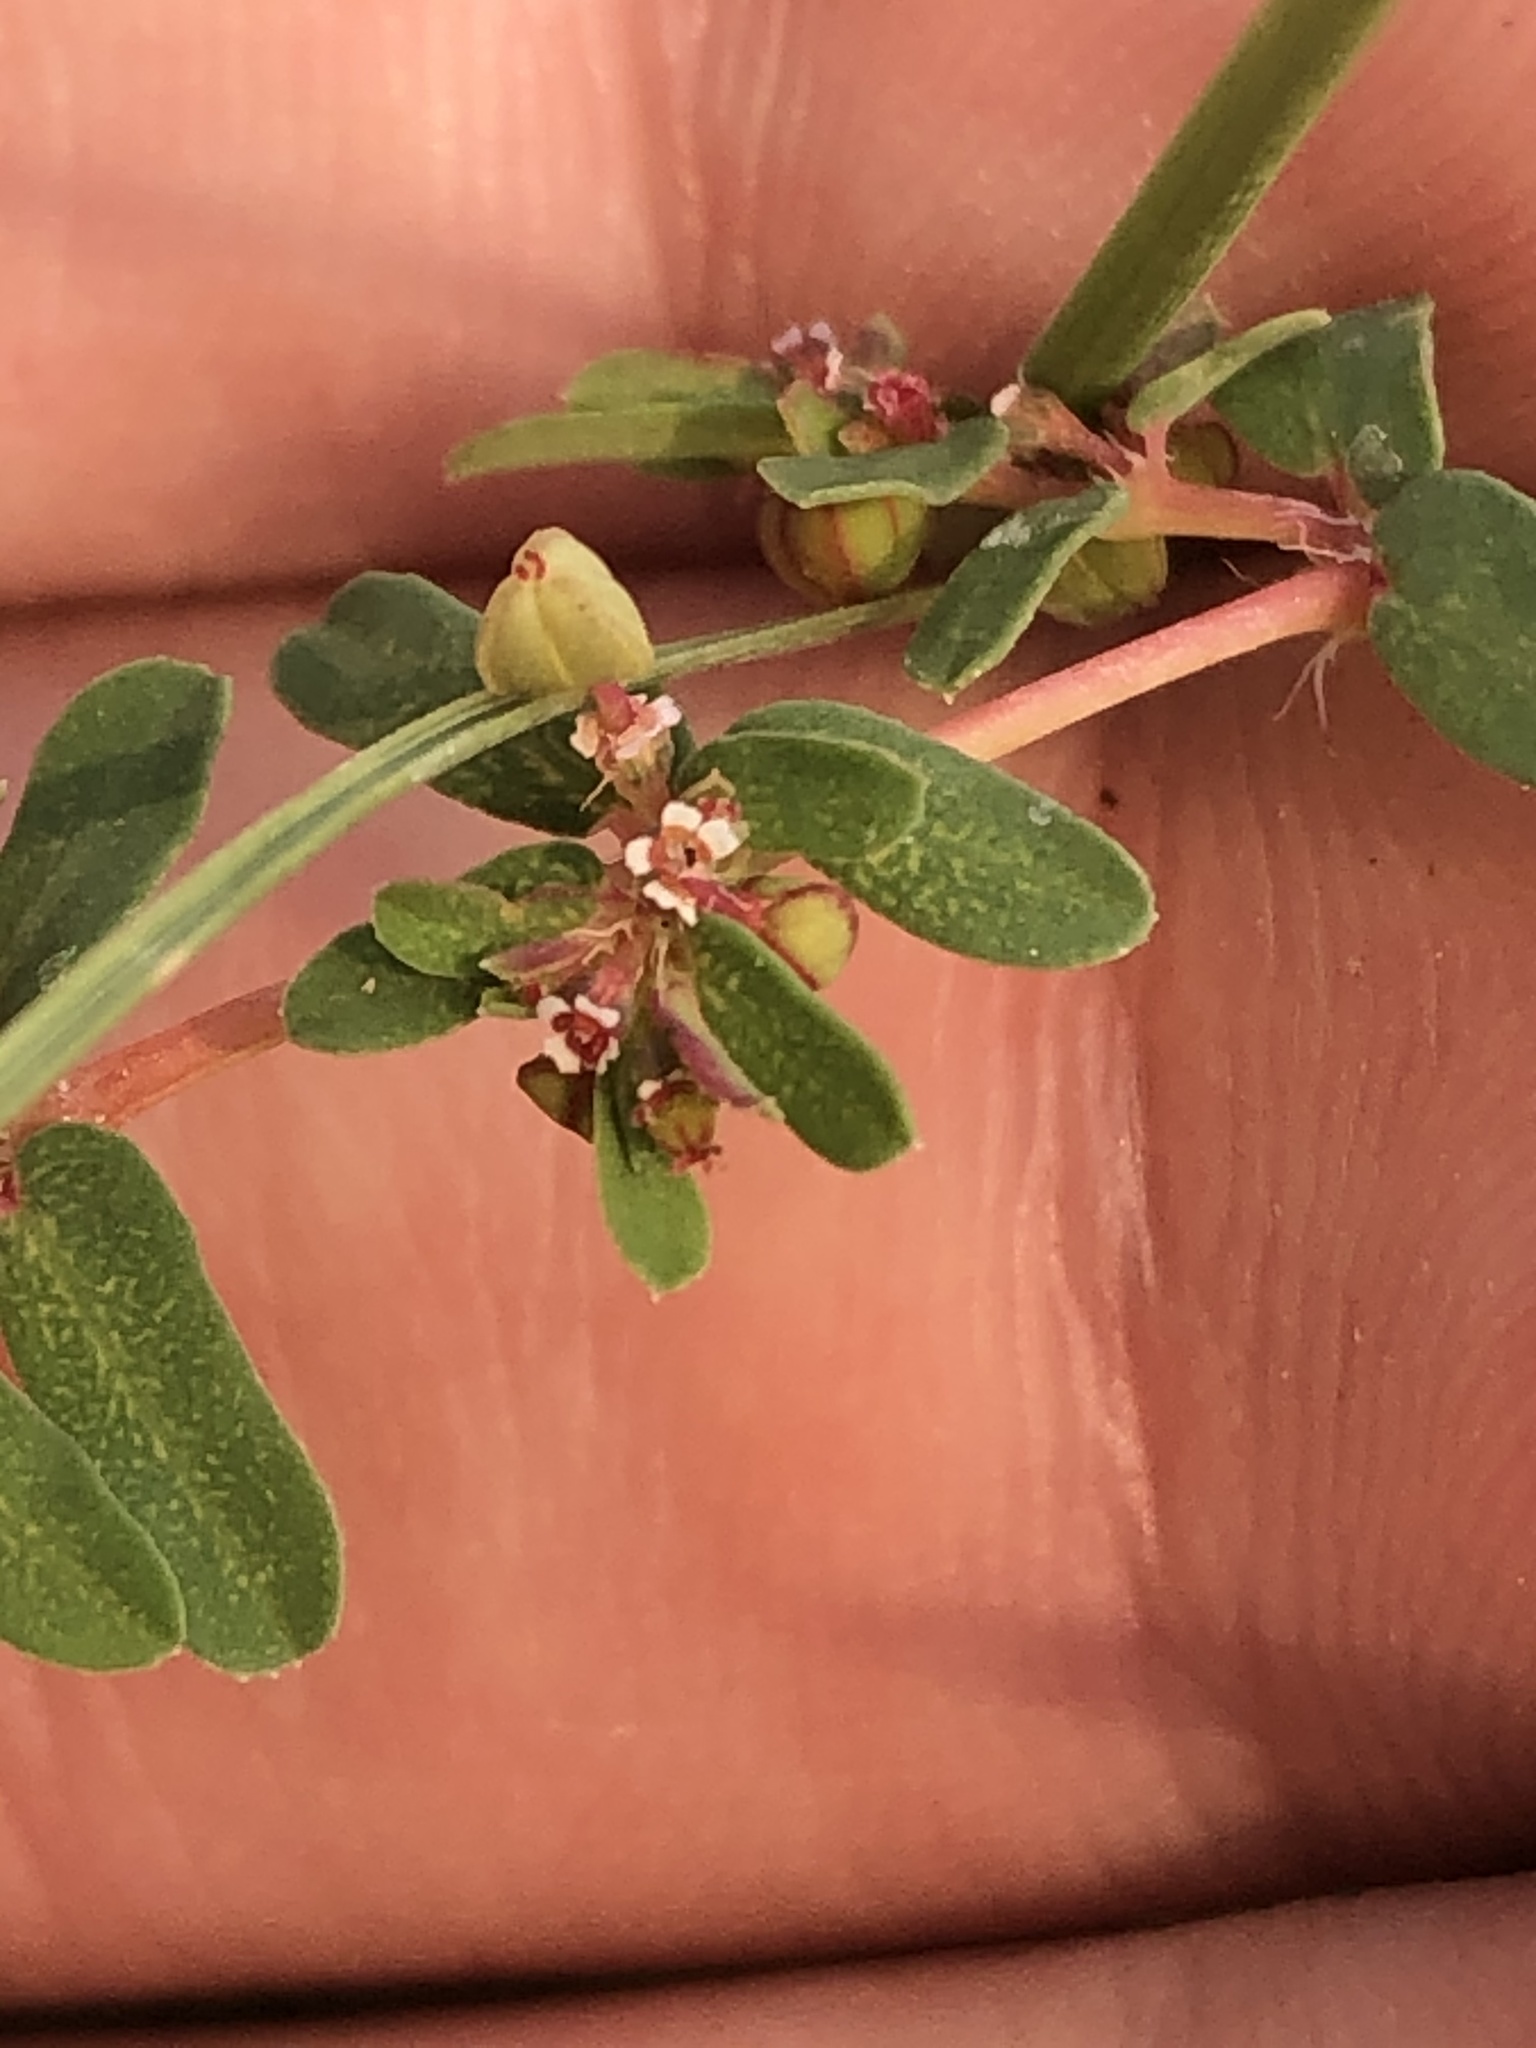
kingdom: Plantae
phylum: Tracheophyta
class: Magnoliopsida
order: Malpighiales
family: Euphorbiaceae
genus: Euphorbia
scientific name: Euphorbia glyptosperma
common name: Corrugate-seeded spurge
